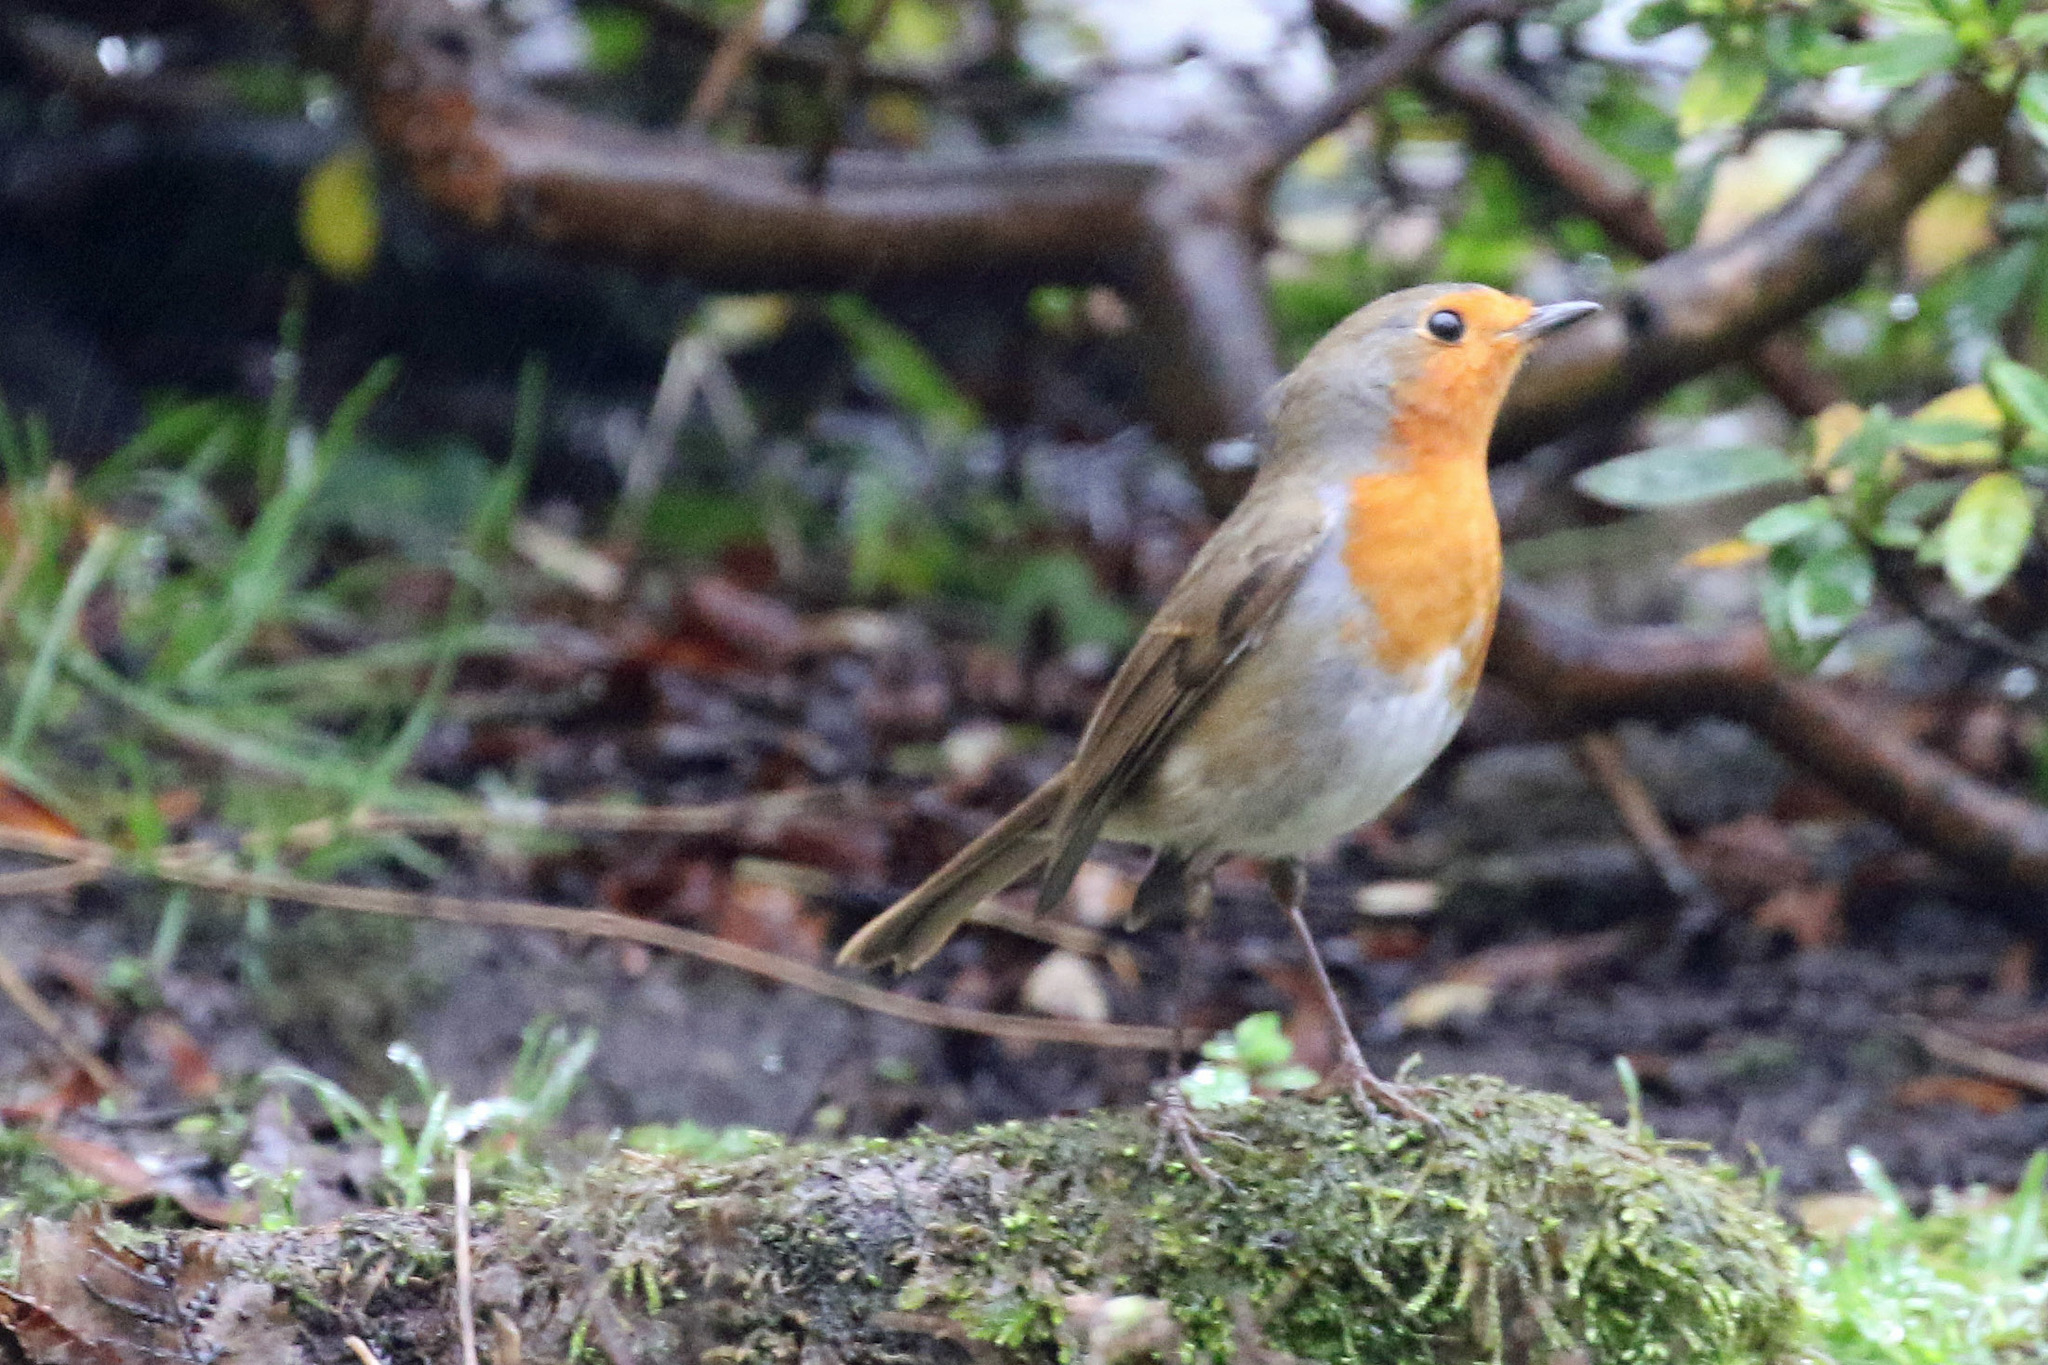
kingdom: Animalia
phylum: Chordata
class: Aves
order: Passeriformes
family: Muscicapidae
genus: Erithacus
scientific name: Erithacus rubecula
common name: European robin
